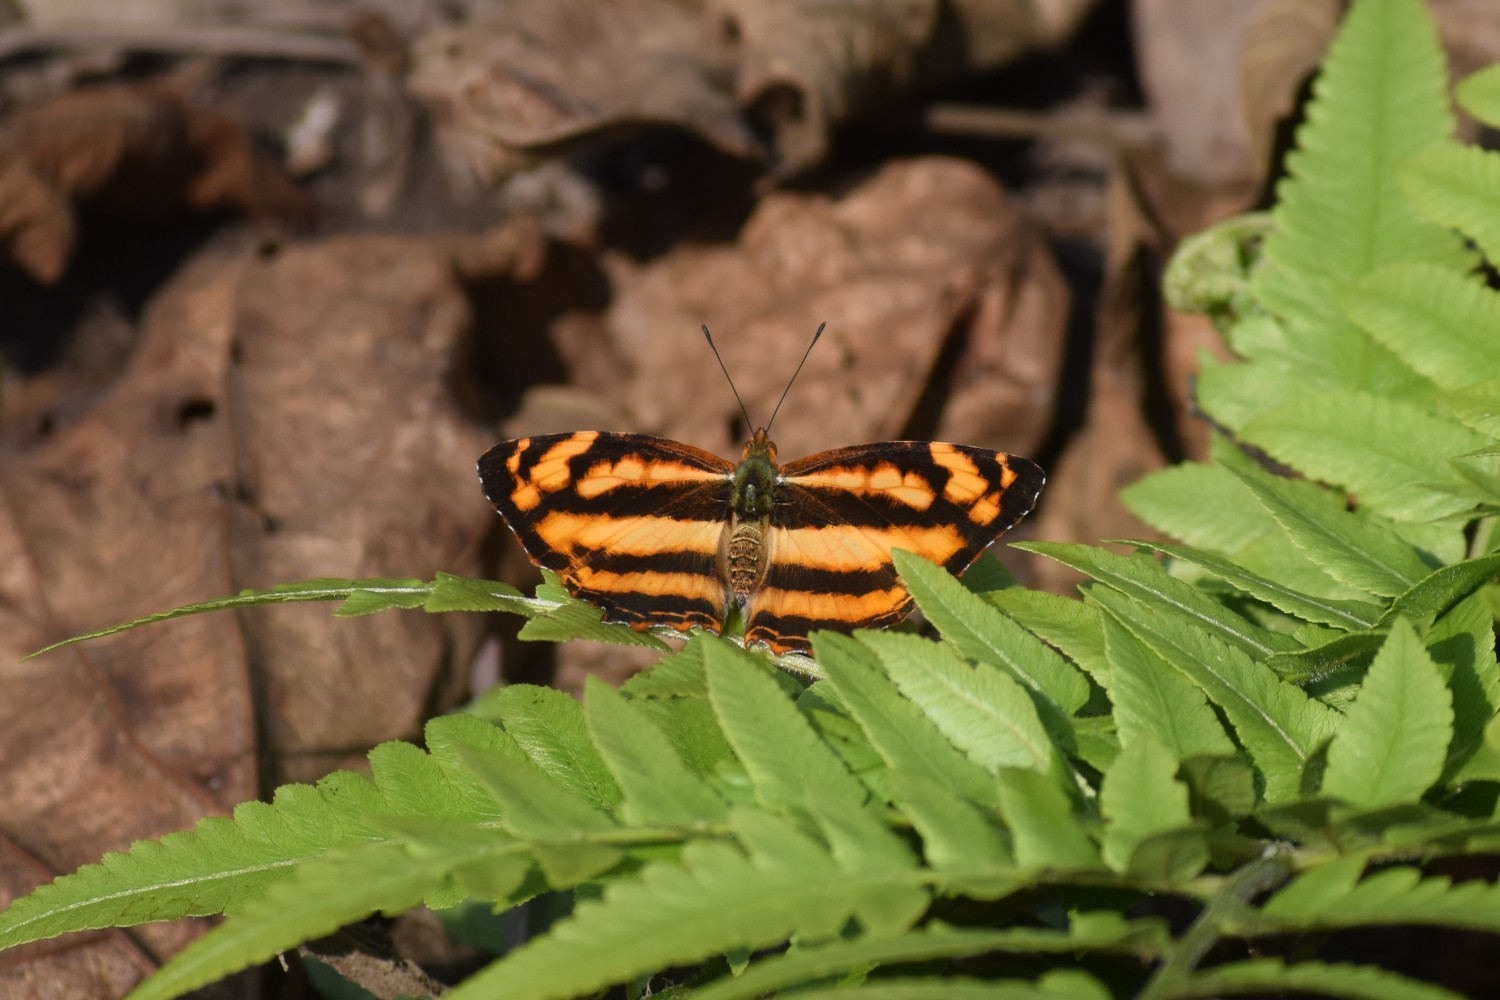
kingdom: Animalia
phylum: Arthropoda
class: Insecta
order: Lepidoptera
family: Nymphalidae
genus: Pantoporia
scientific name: Pantoporia hordonia
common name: Common lascar
